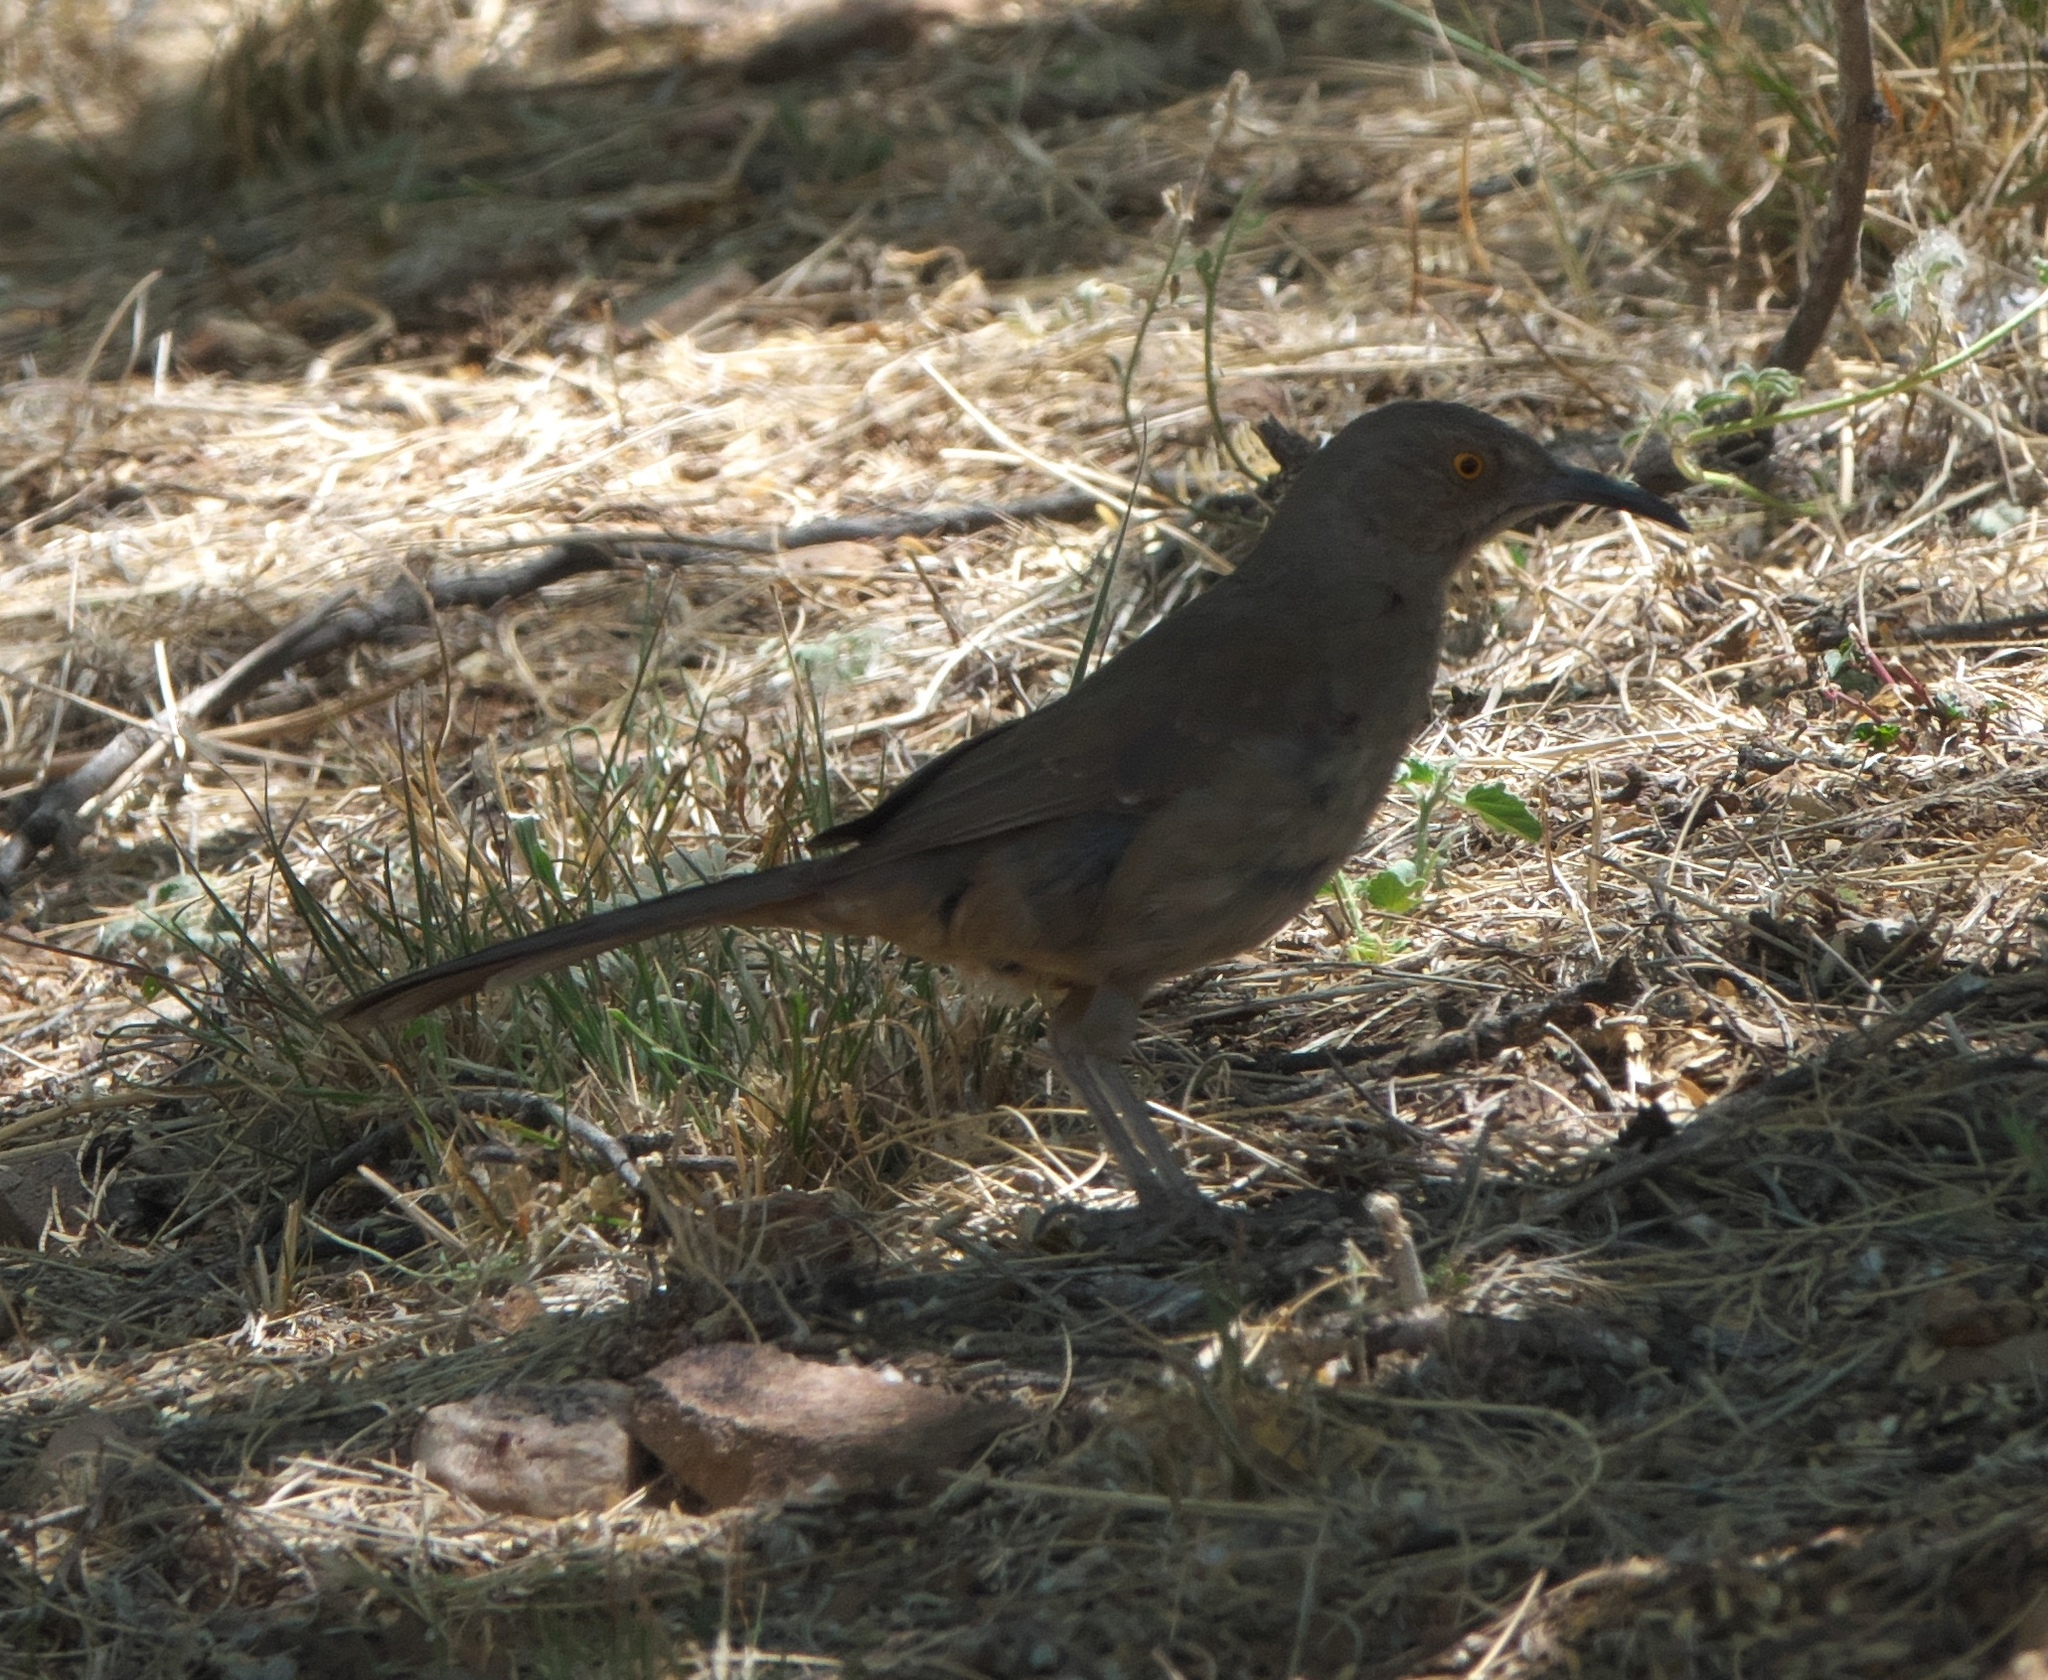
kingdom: Animalia
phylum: Chordata
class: Aves
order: Passeriformes
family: Mimidae
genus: Toxostoma
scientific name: Toxostoma curvirostre
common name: Curve-billed thrasher
